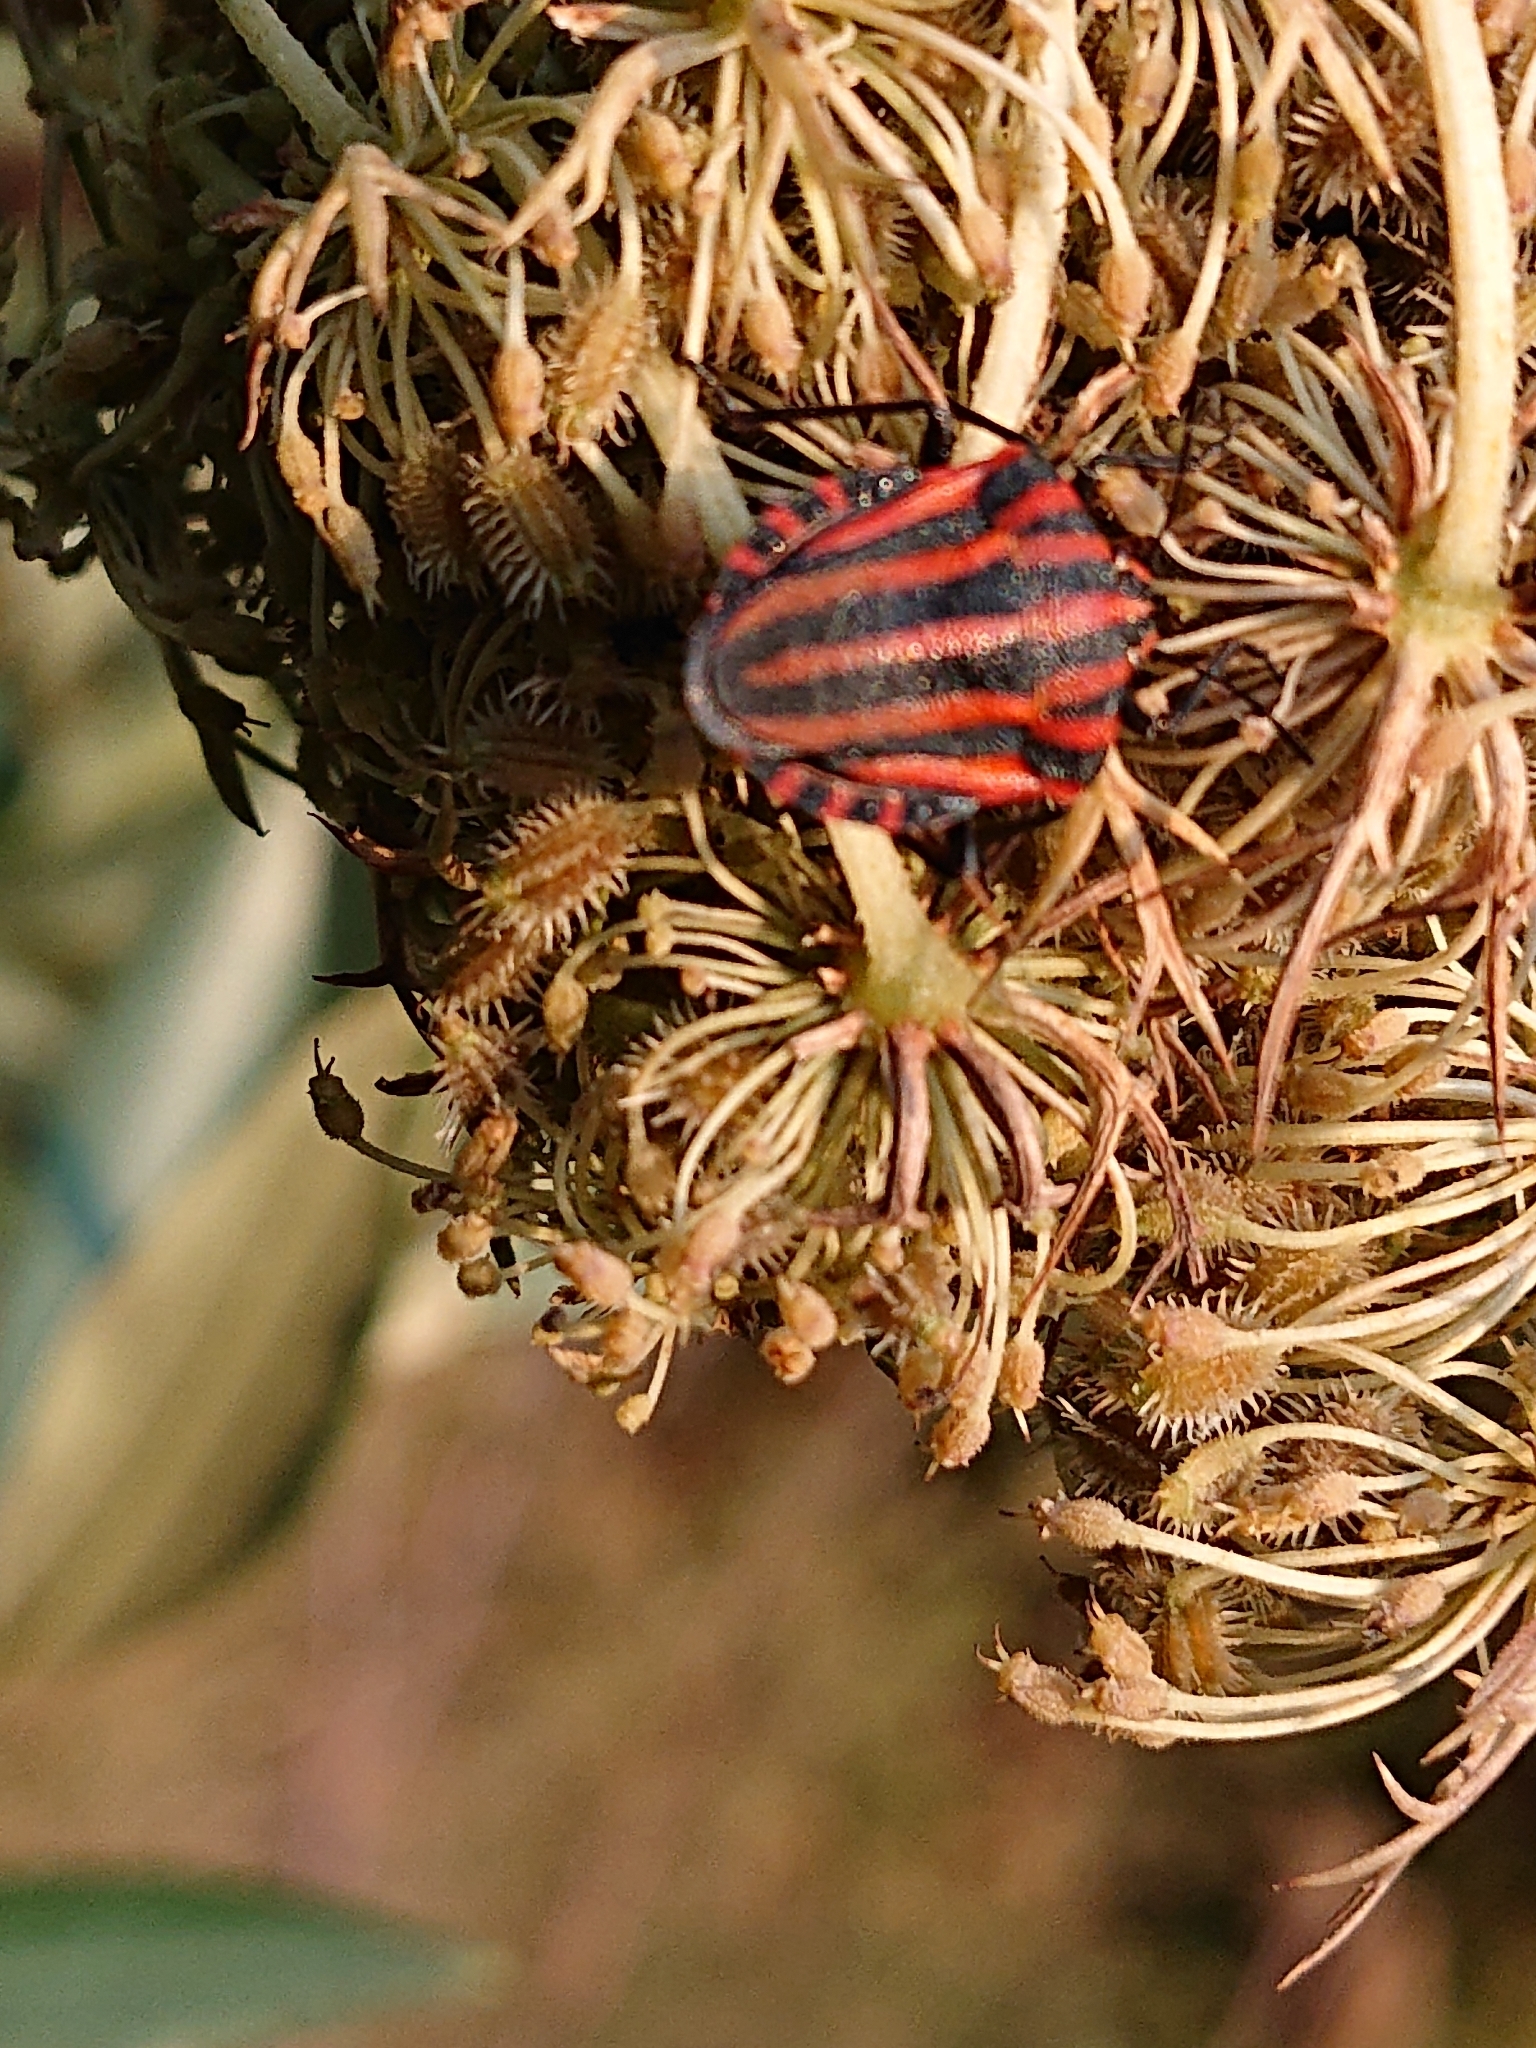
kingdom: Animalia
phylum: Arthropoda
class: Insecta
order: Hemiptera
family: Pentatomidae
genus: Graphosoma
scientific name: Graphosoma italicum
